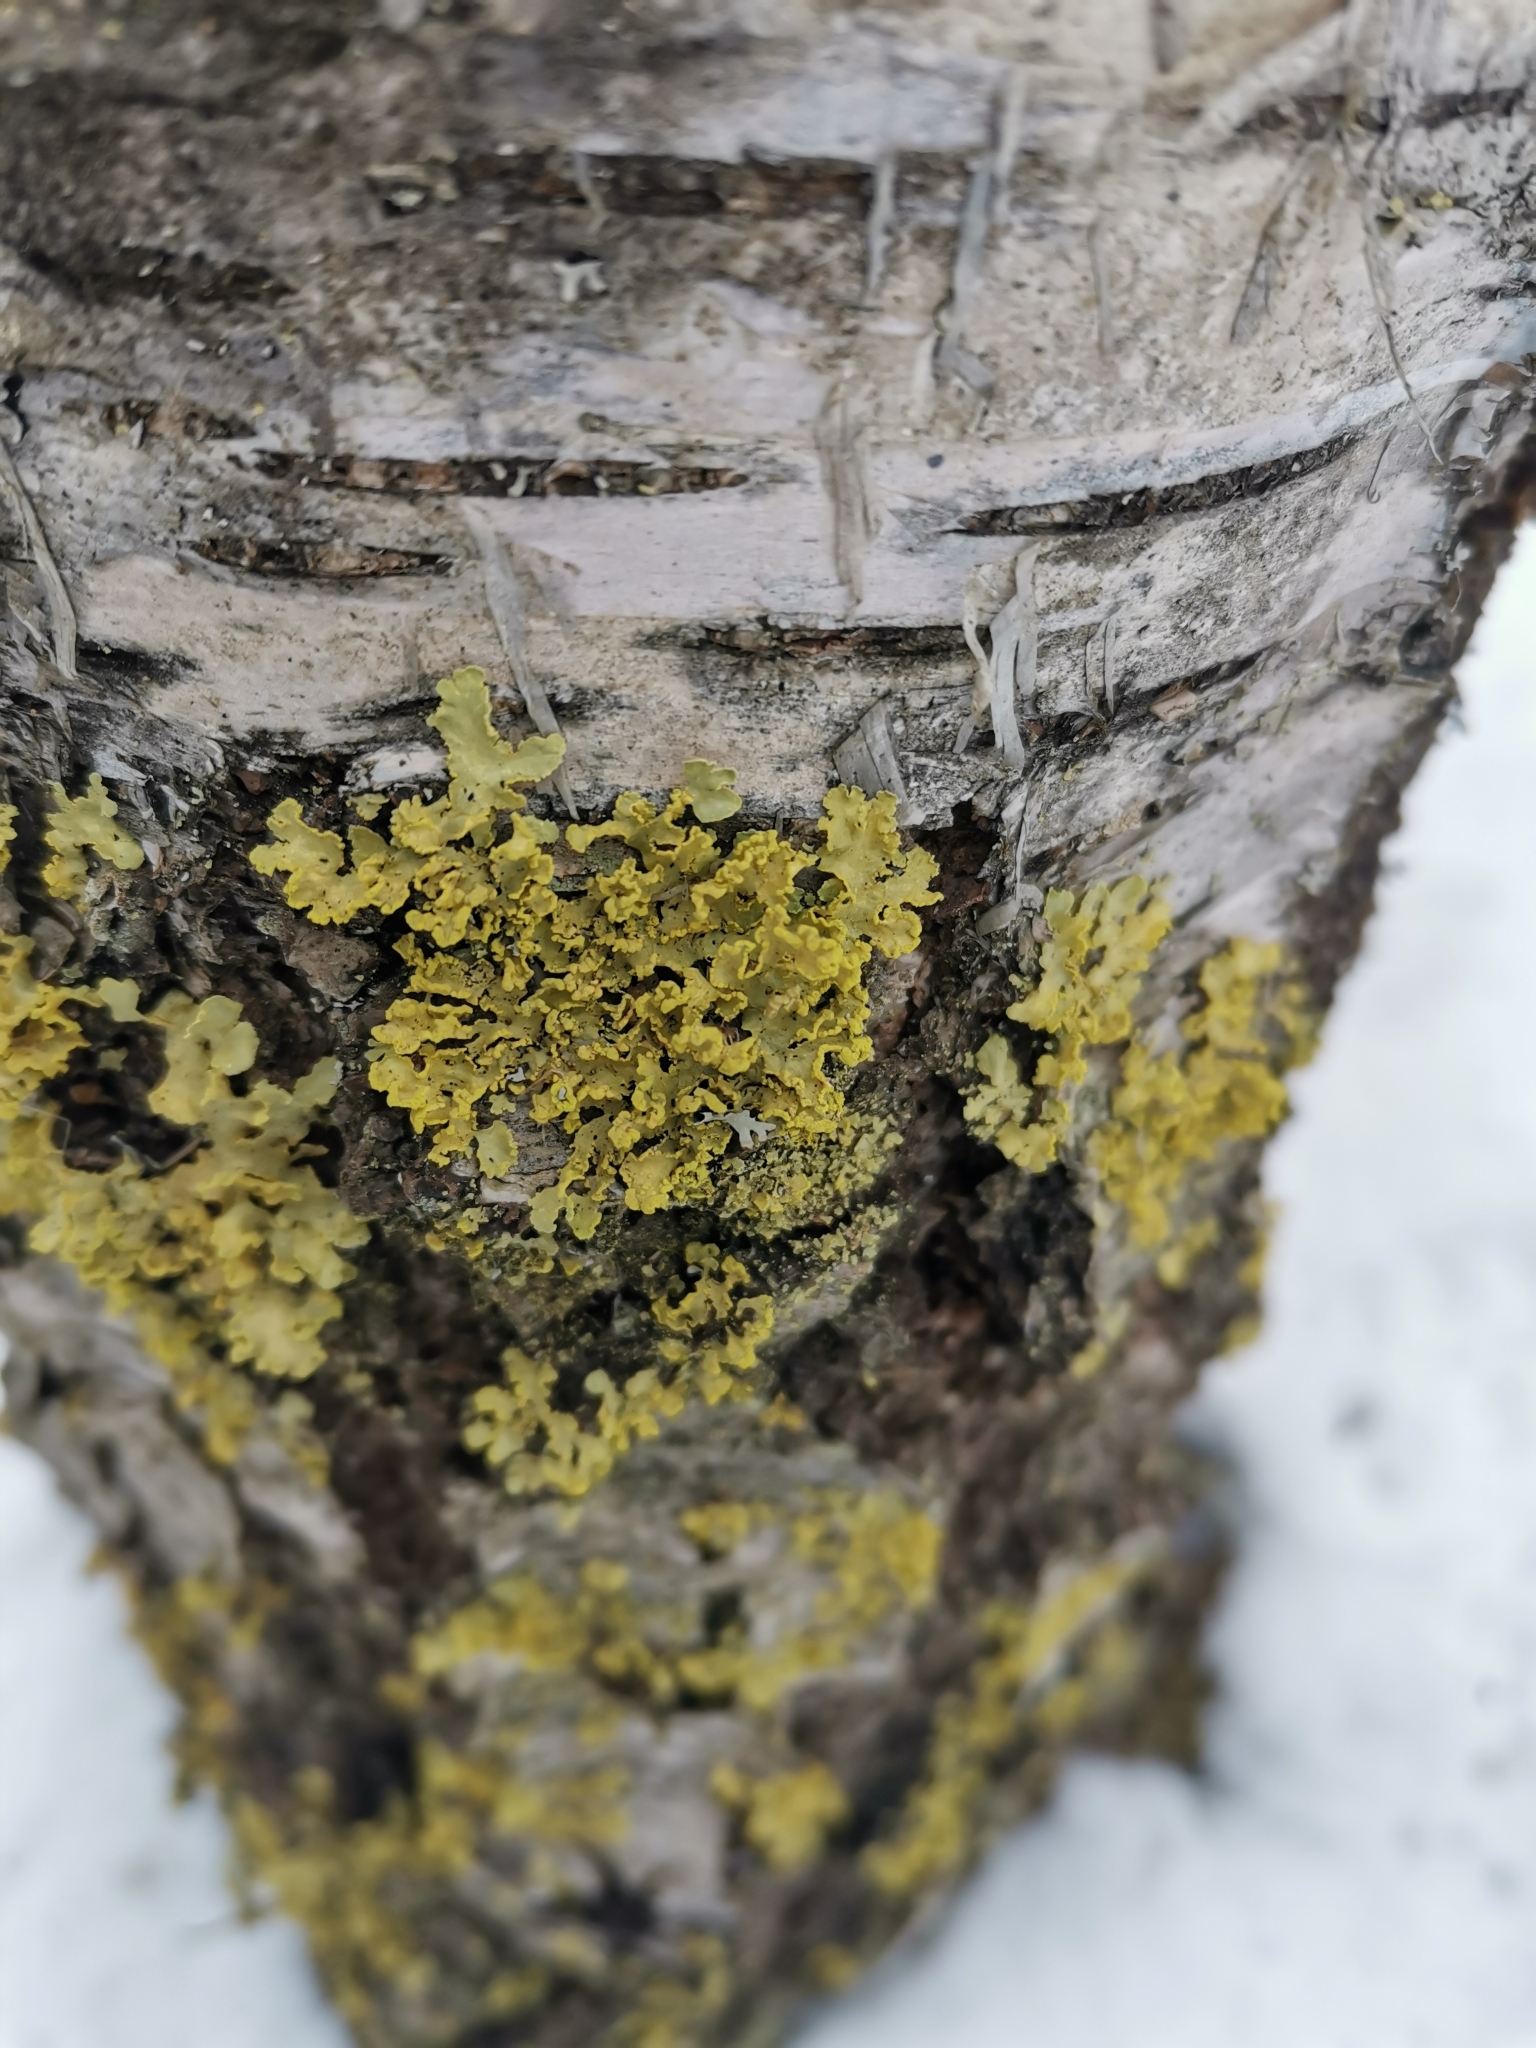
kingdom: Fungi
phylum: Ascomycota
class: Lecanoromycetes
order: Lecanorales
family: Parmeliaceae
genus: Vulpicida
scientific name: Vulpicida pinastri
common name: Powdered sunshine lichen
